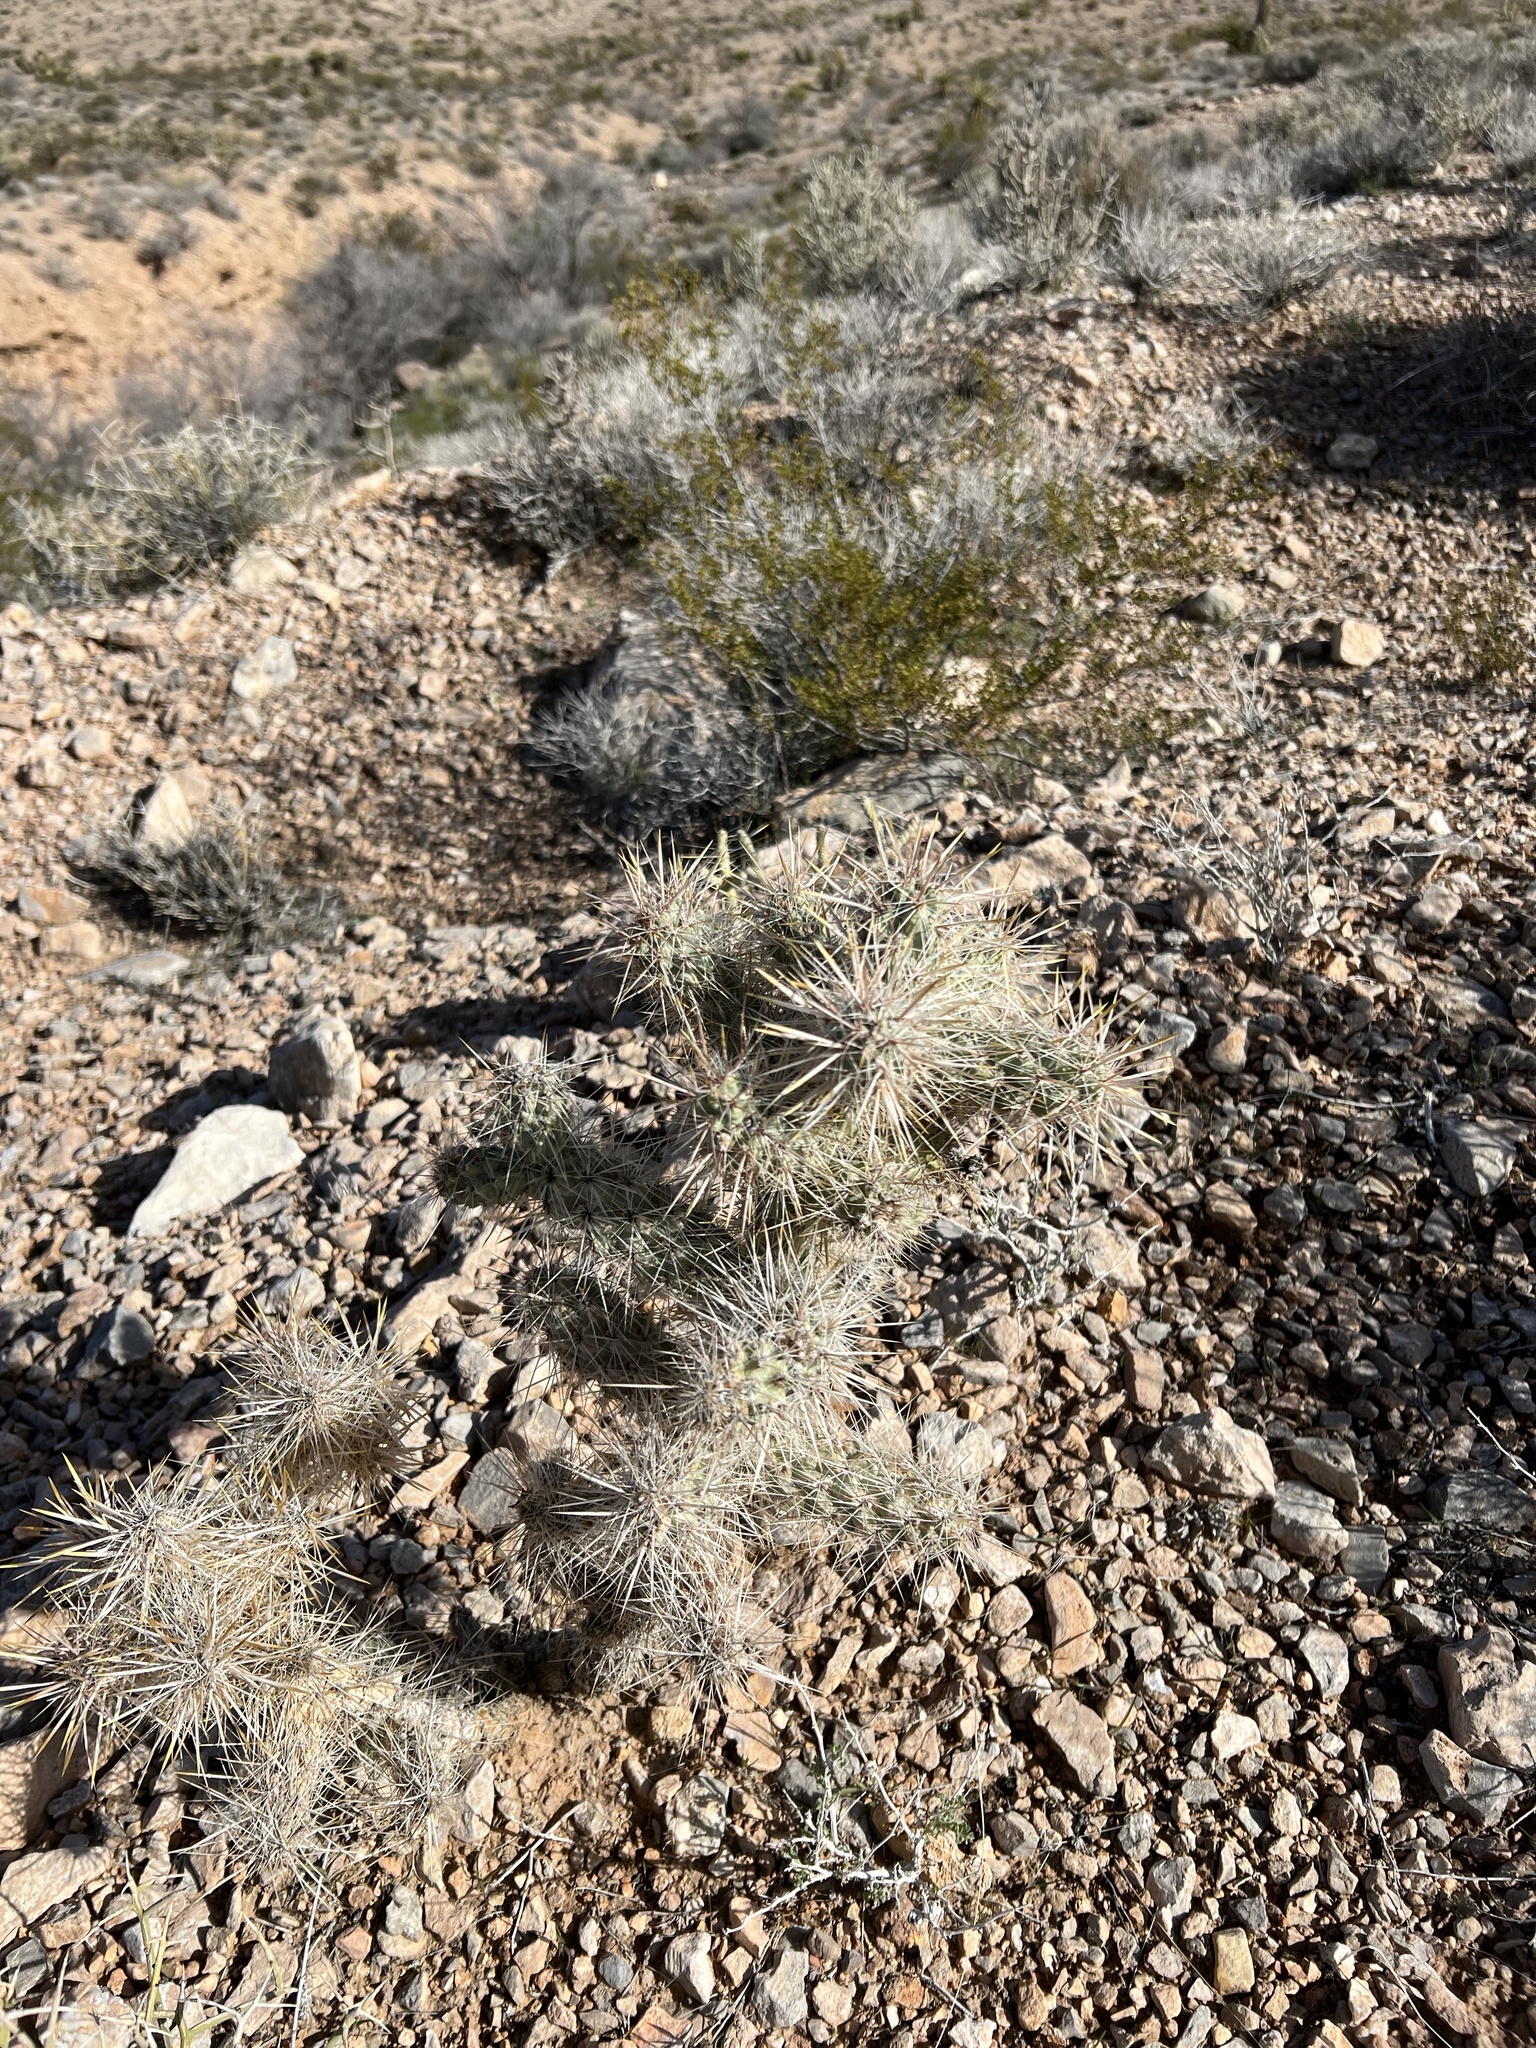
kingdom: Plantae
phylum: Tracheophyta
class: Magnoliopsida
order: Caryophyllales
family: Cactaceae
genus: Cylindropuntia
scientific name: Cylindropuntia echinocarpa
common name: Ground cholla
